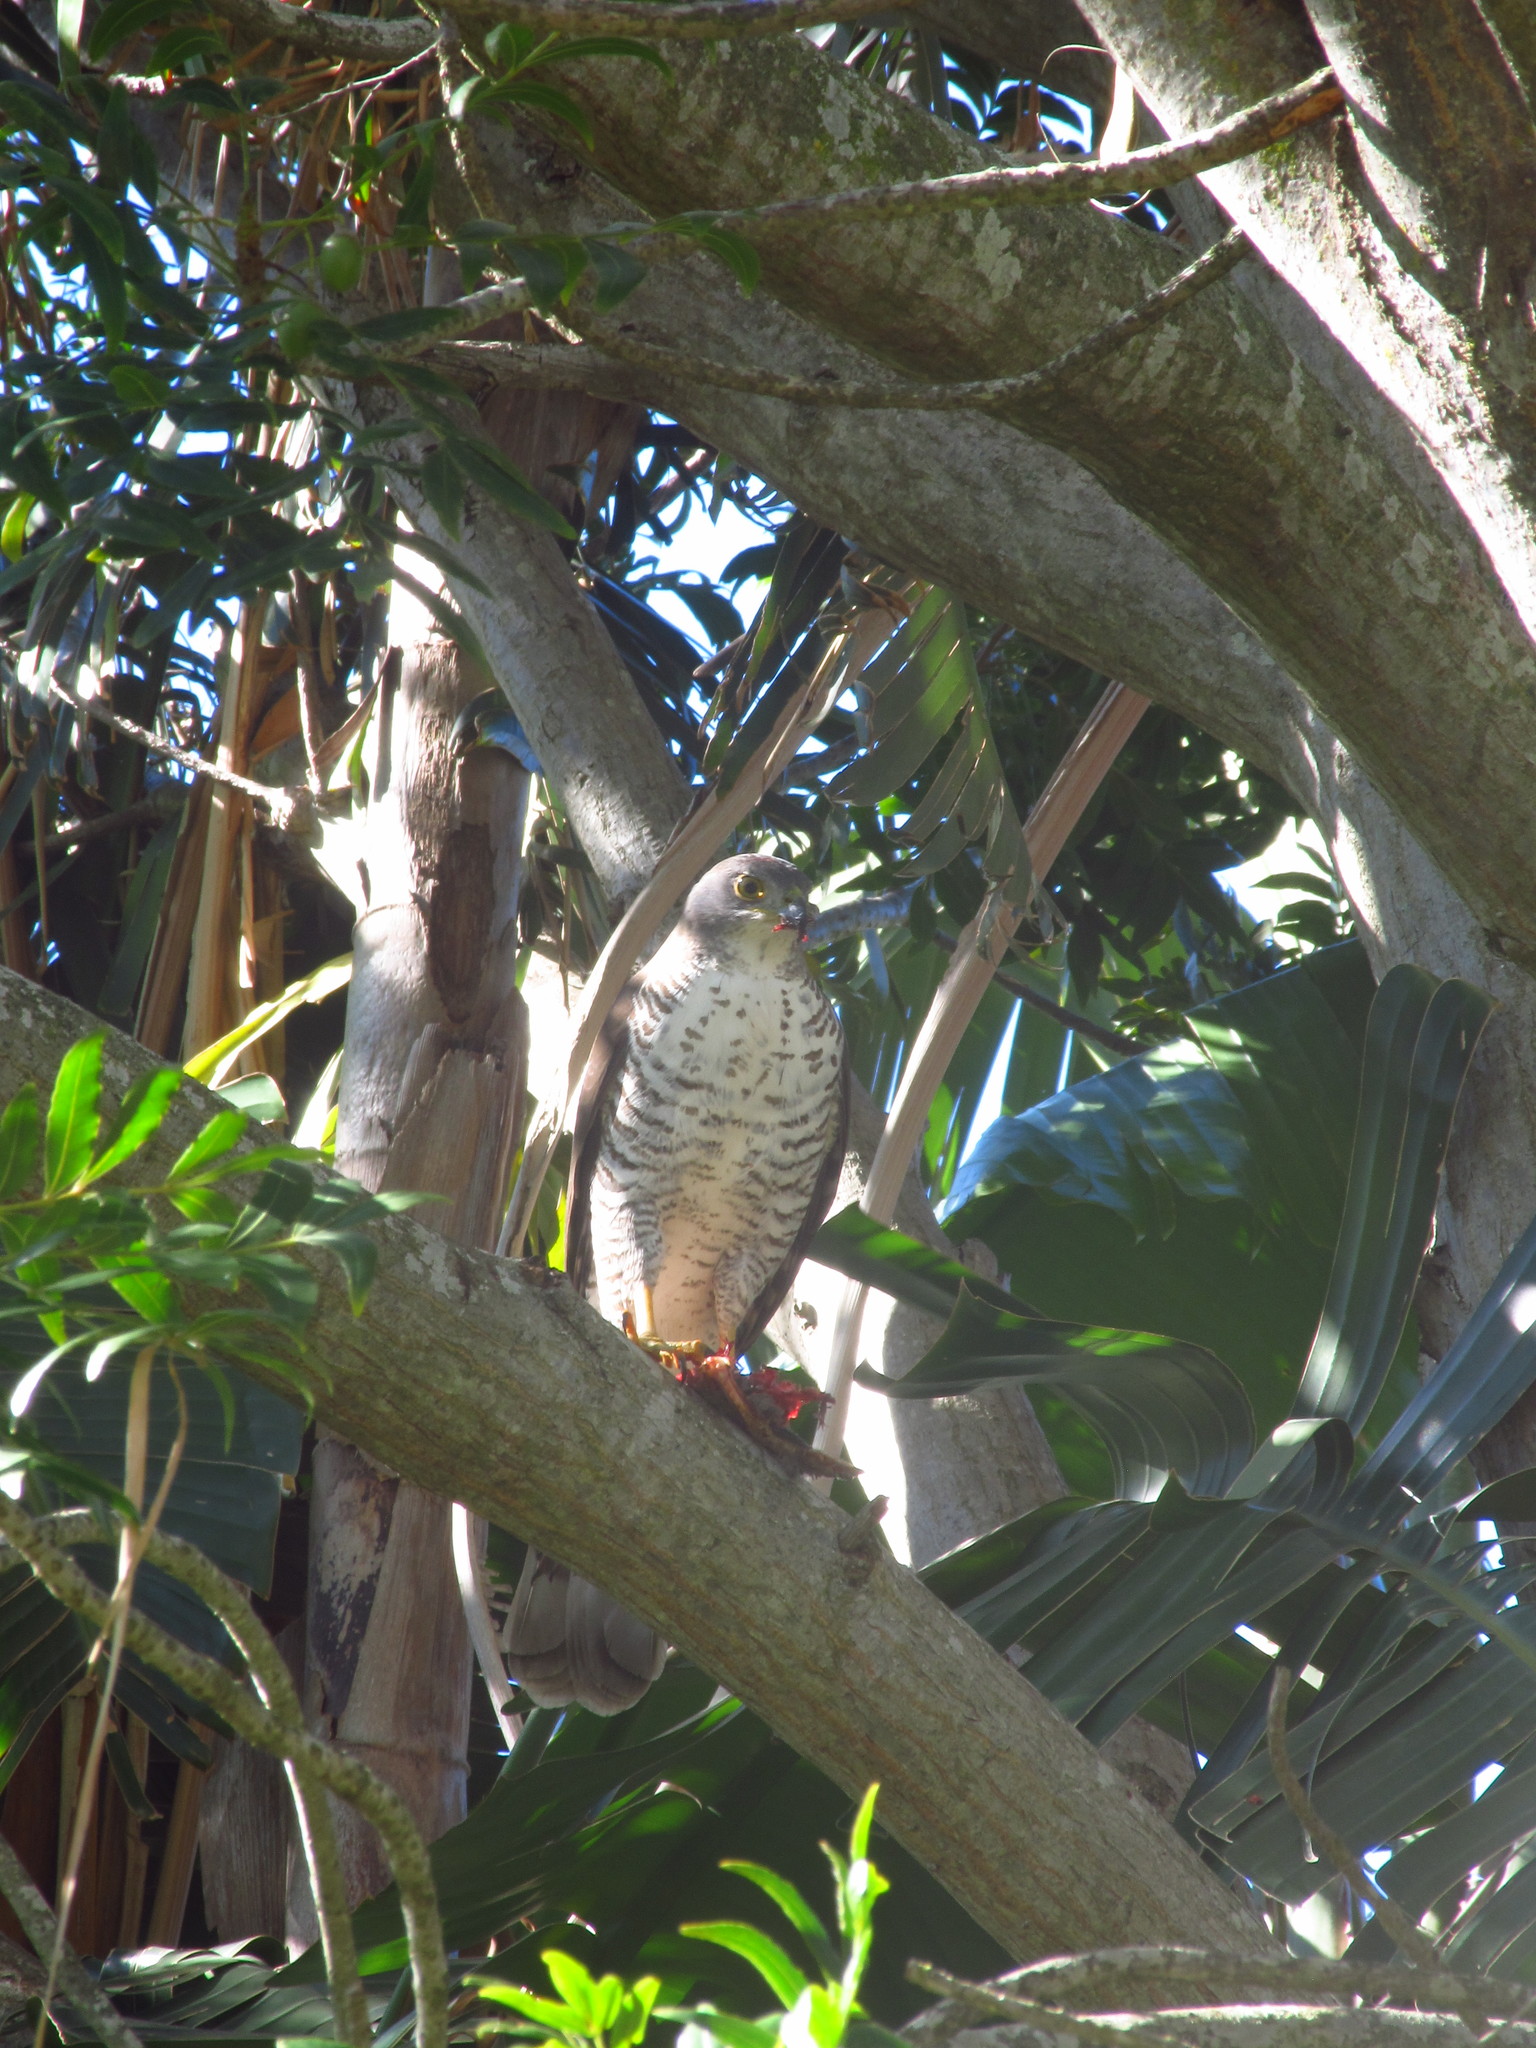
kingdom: Animalia
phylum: Chordata
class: Aves
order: Accipitriformes
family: Accipitridae
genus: Accipiter
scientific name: Accipiter tachiro
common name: African goshawk
